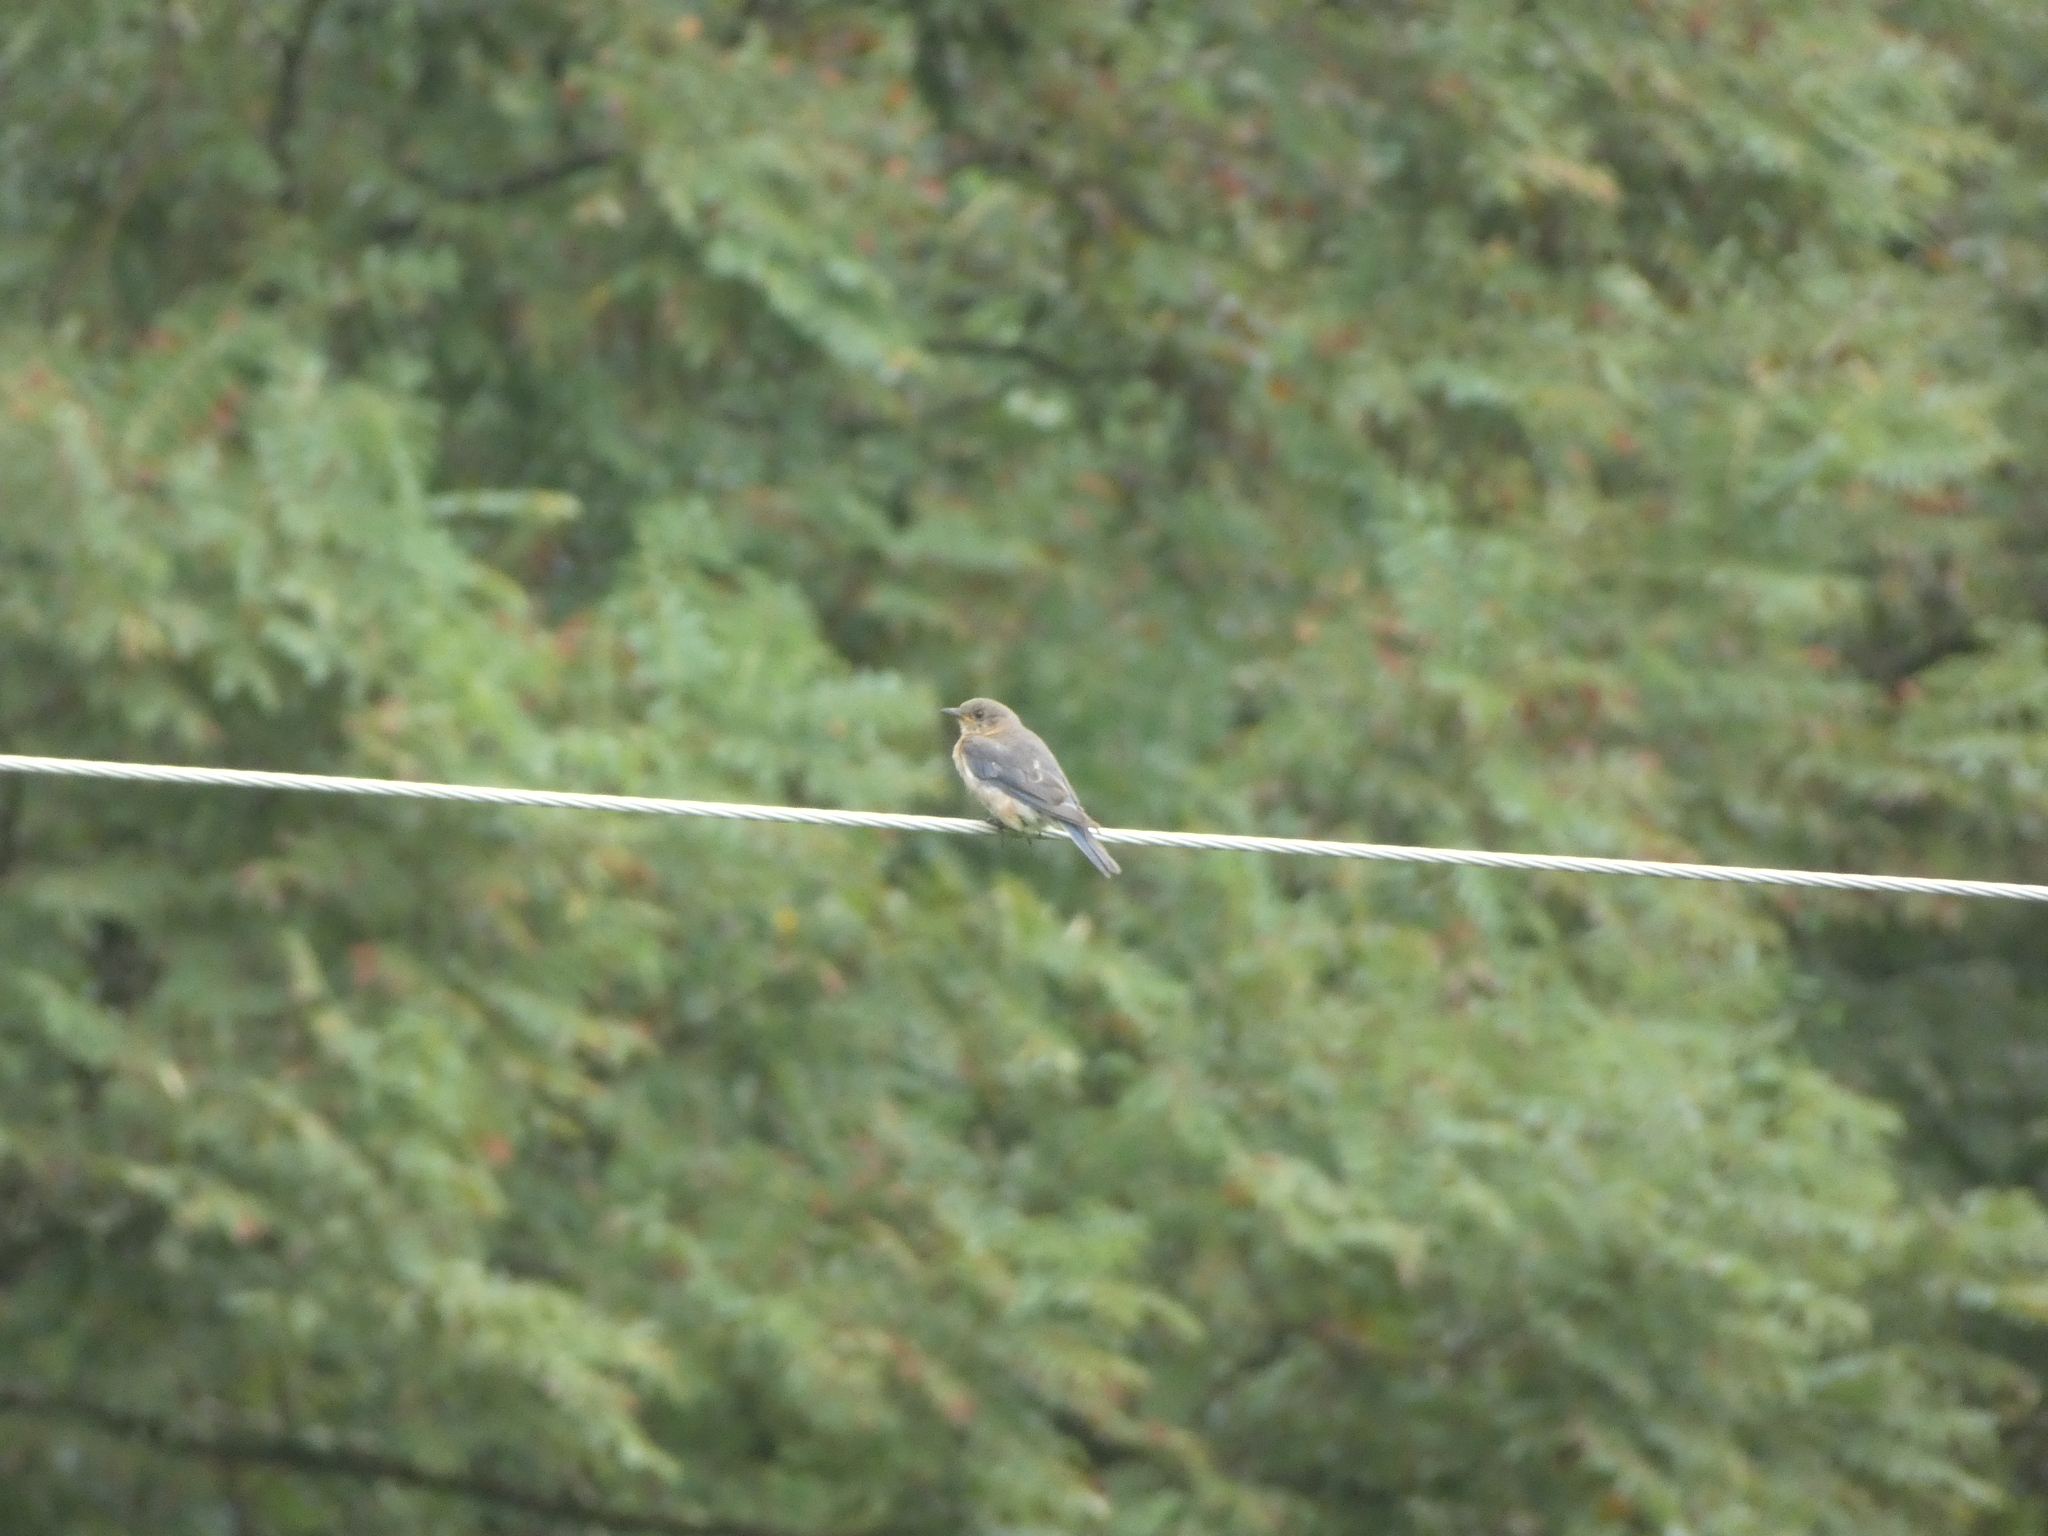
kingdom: Animalia
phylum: Chordata
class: Aves
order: Passeriformes
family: Turdidae
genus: Sialia
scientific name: Sialia sialis
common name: Eastern bluebird
